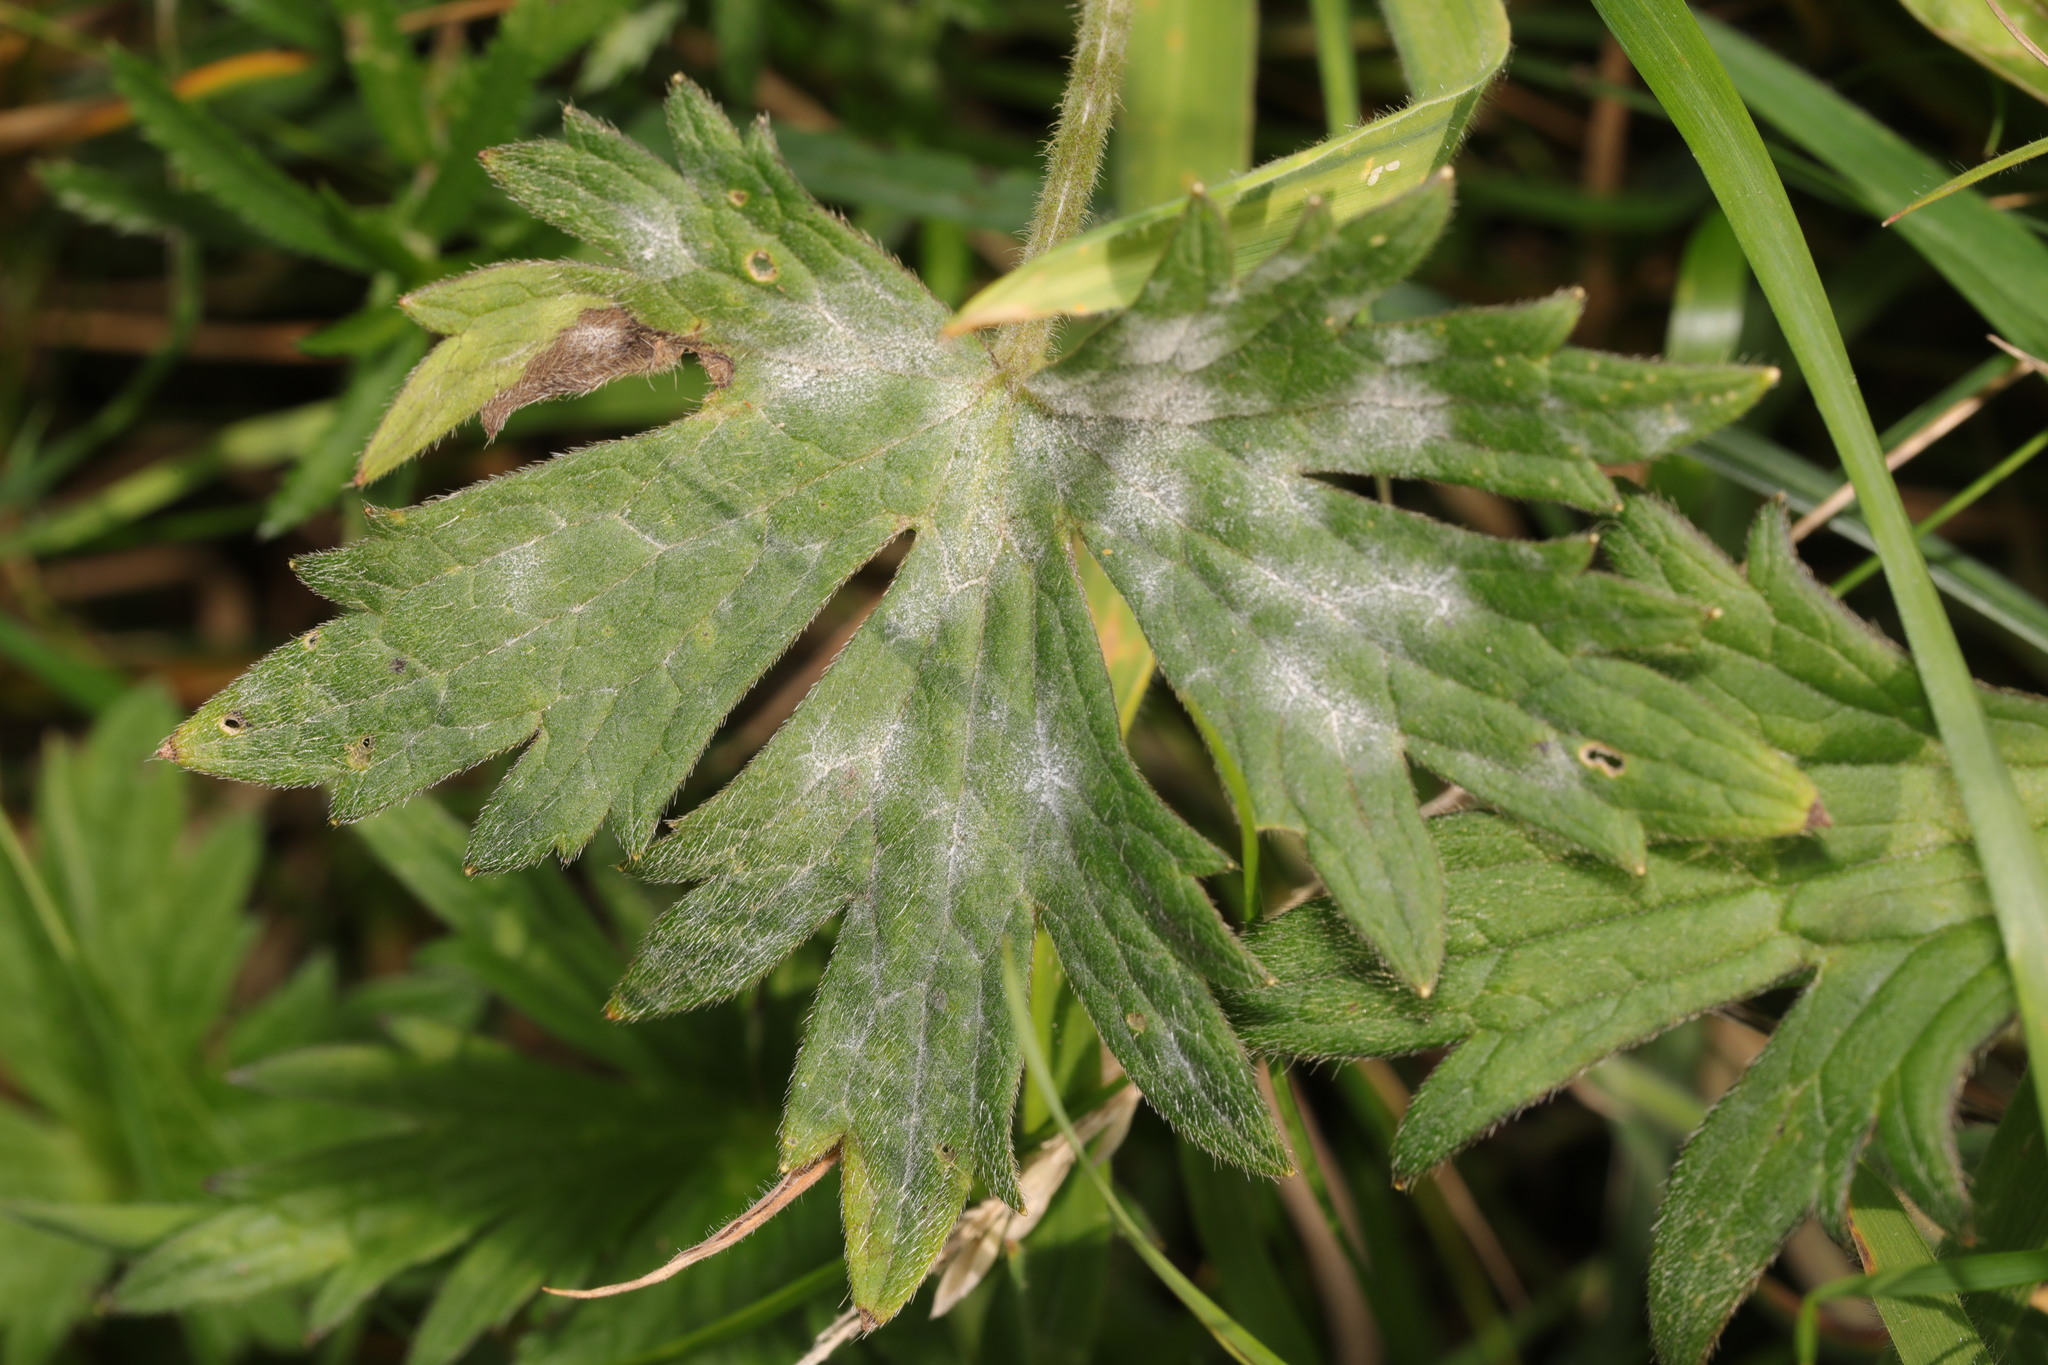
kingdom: Fungi
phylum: Ascomycota
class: Leotiomycetes
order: Helotiales
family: Erysiphaceae
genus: Erysiphe
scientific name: Erysiphe aquilegiae
